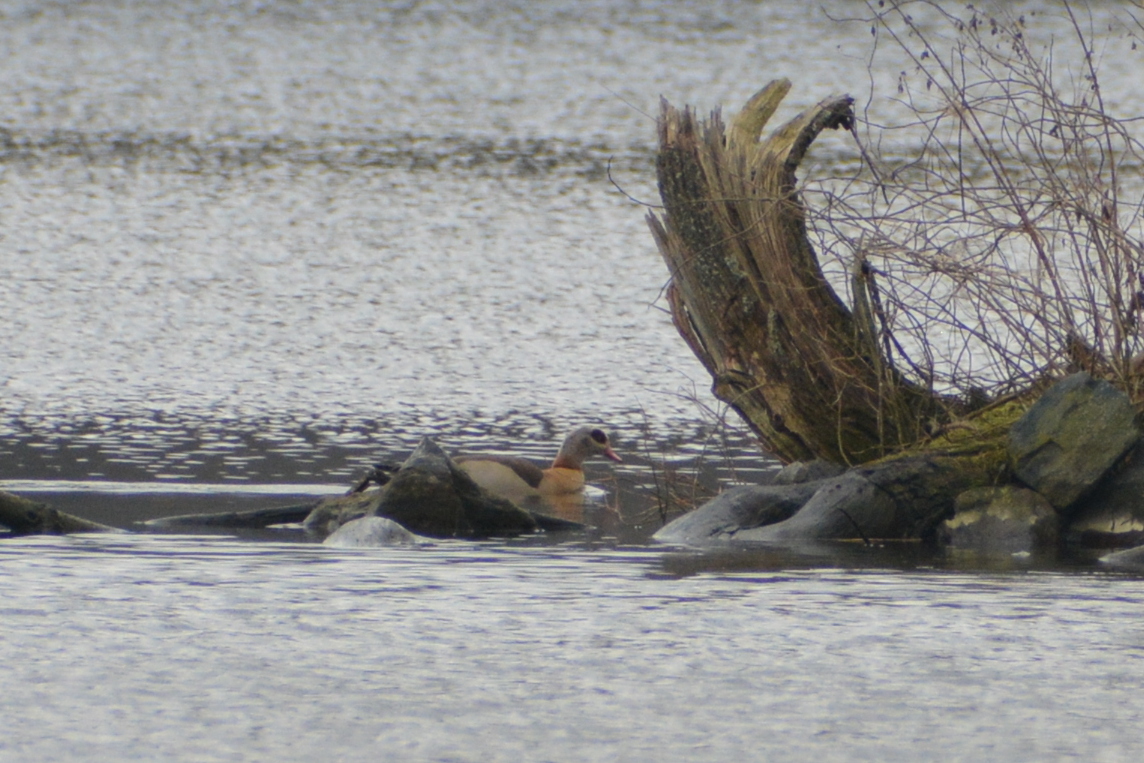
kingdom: Animalia
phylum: Chordata
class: Aves
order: Anseriformes
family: Anatidae
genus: Alopochen
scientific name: Alopochen aegyptiaca
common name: Egyptian goose
